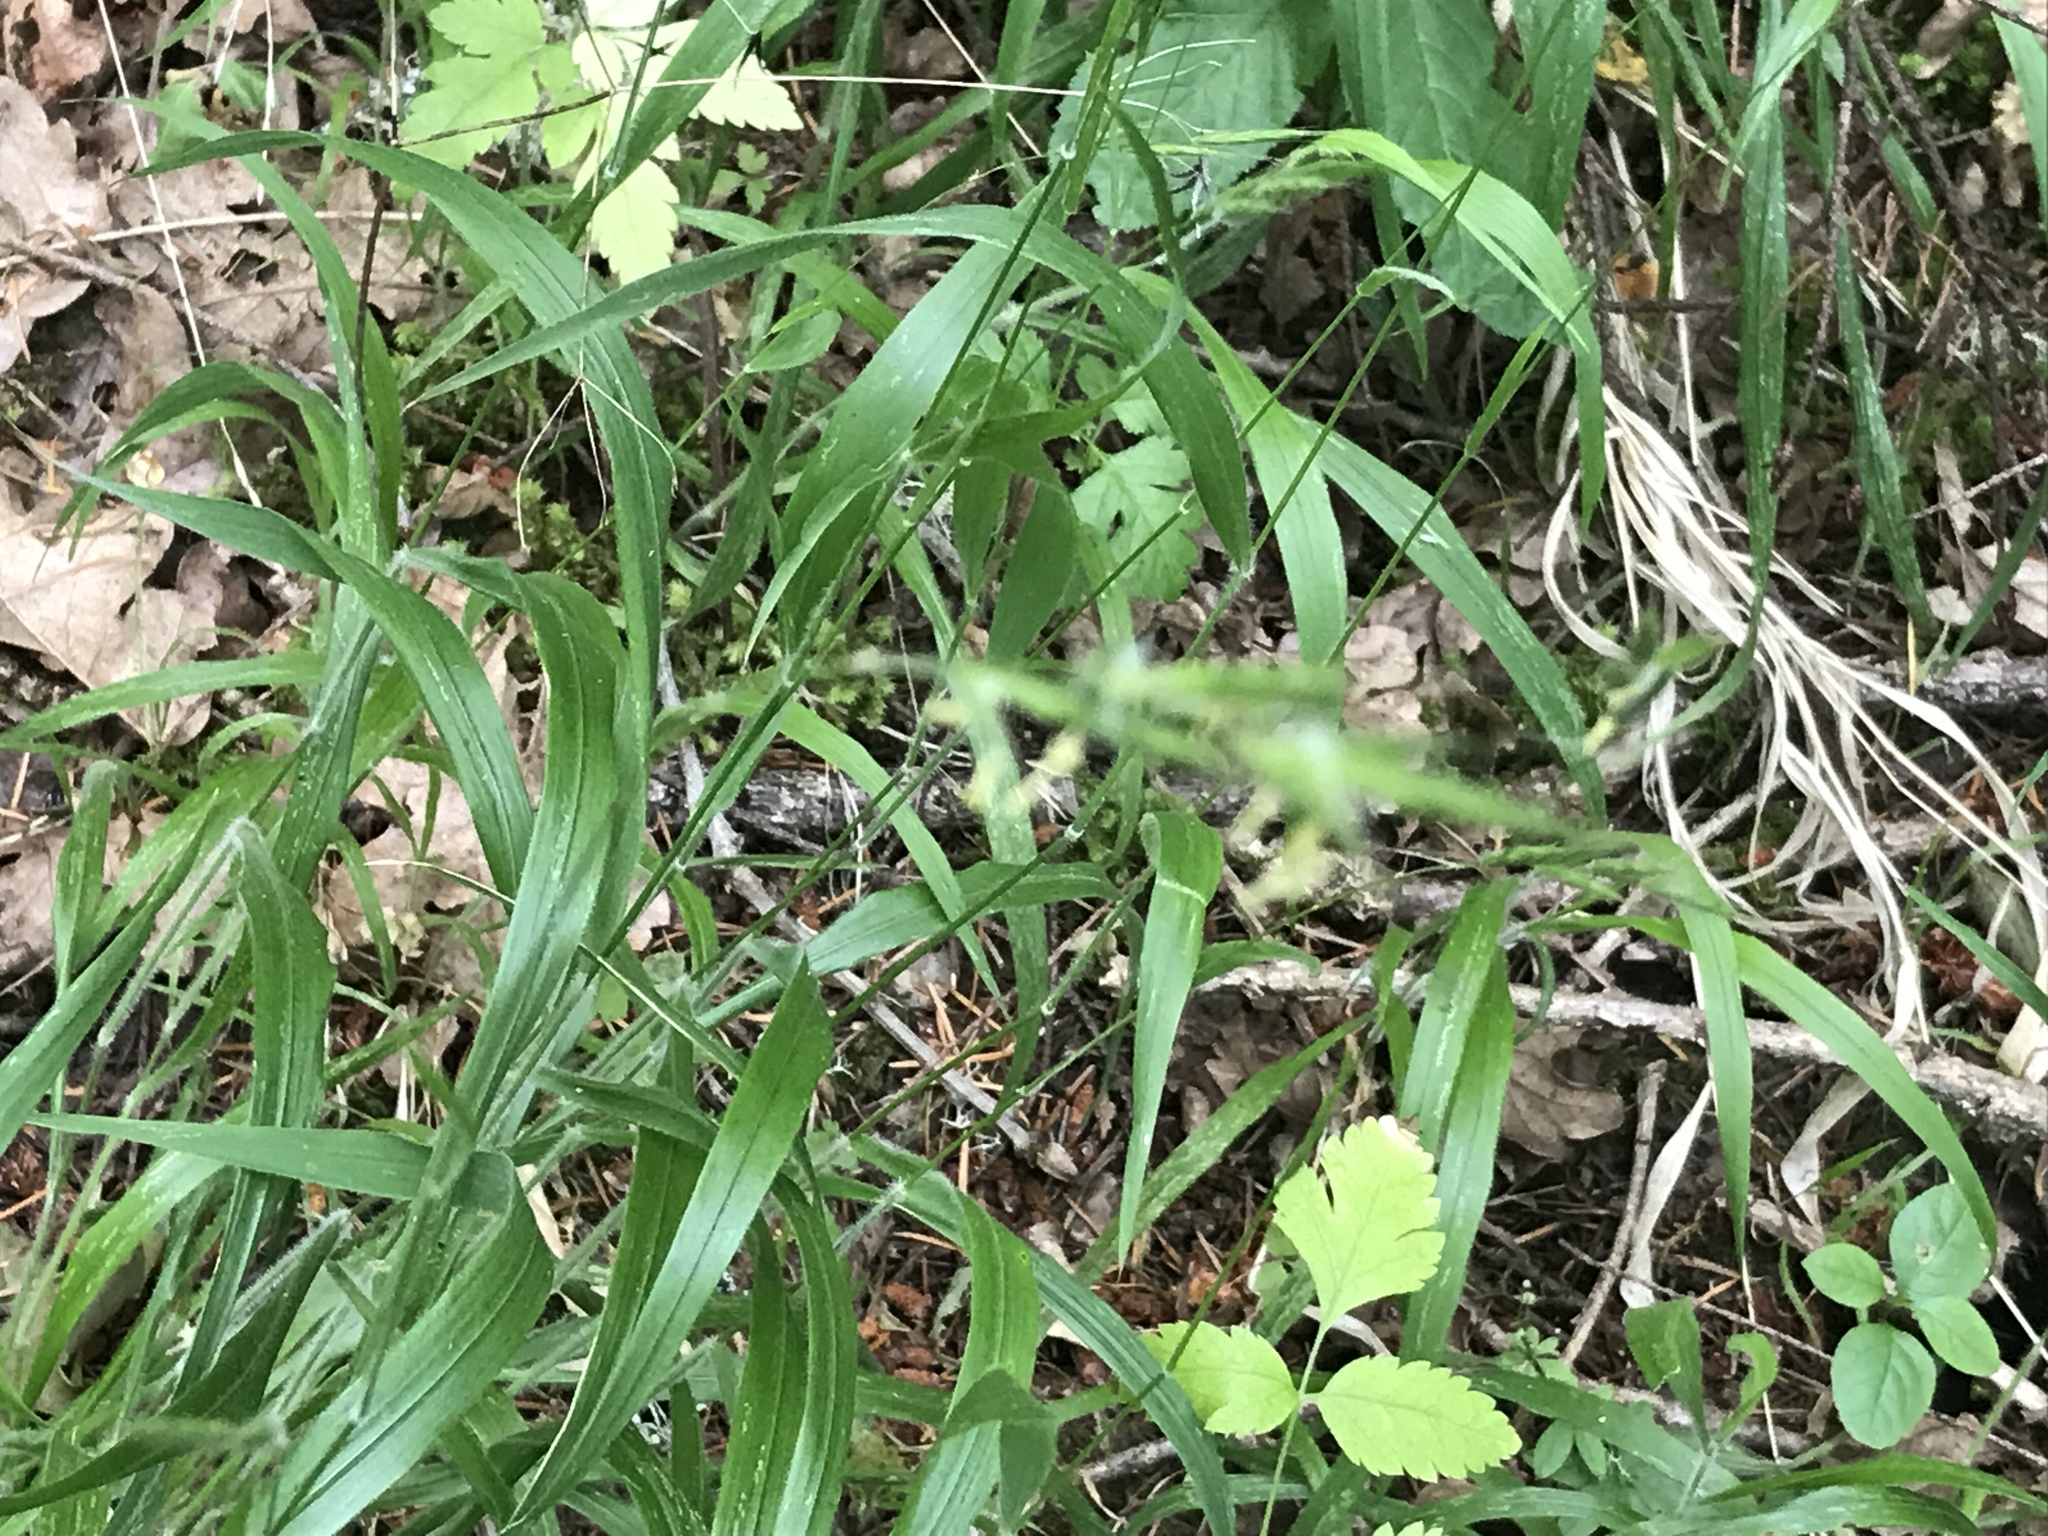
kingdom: Plantae
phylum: Tracheophyta
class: Liliopsida
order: Poales
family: Poaceae
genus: Brachypodium
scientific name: Brachypodium sylvaticum
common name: False-brome
